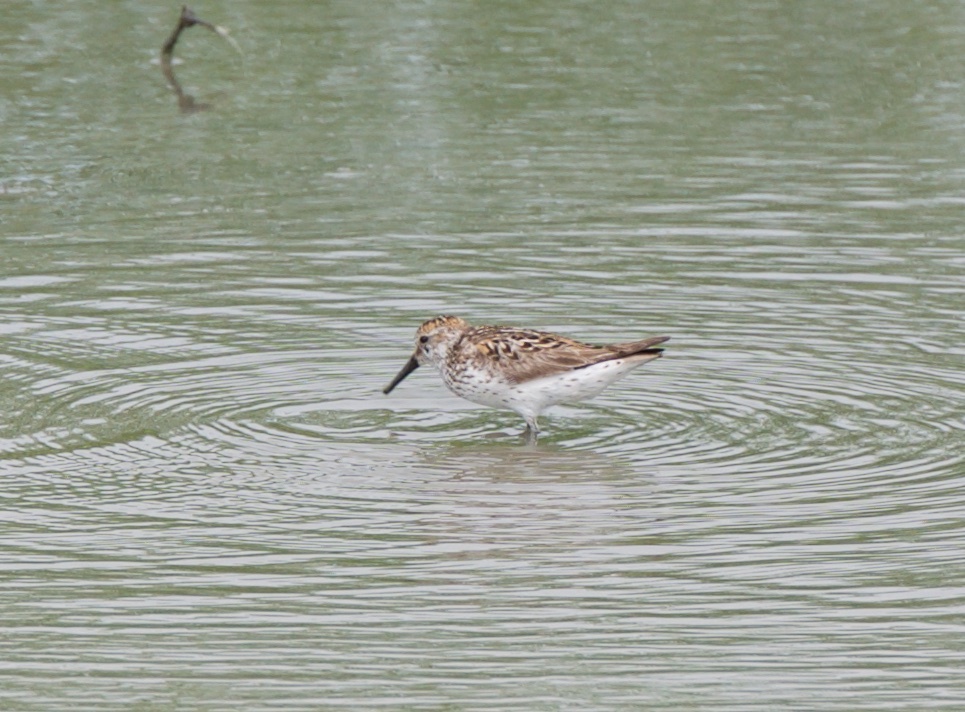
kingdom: Animalia
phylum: Chordata
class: Aves
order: Charadriiformes
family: Scolopacidae
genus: Calidris
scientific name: Calidris mauri
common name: Western sandpiper
